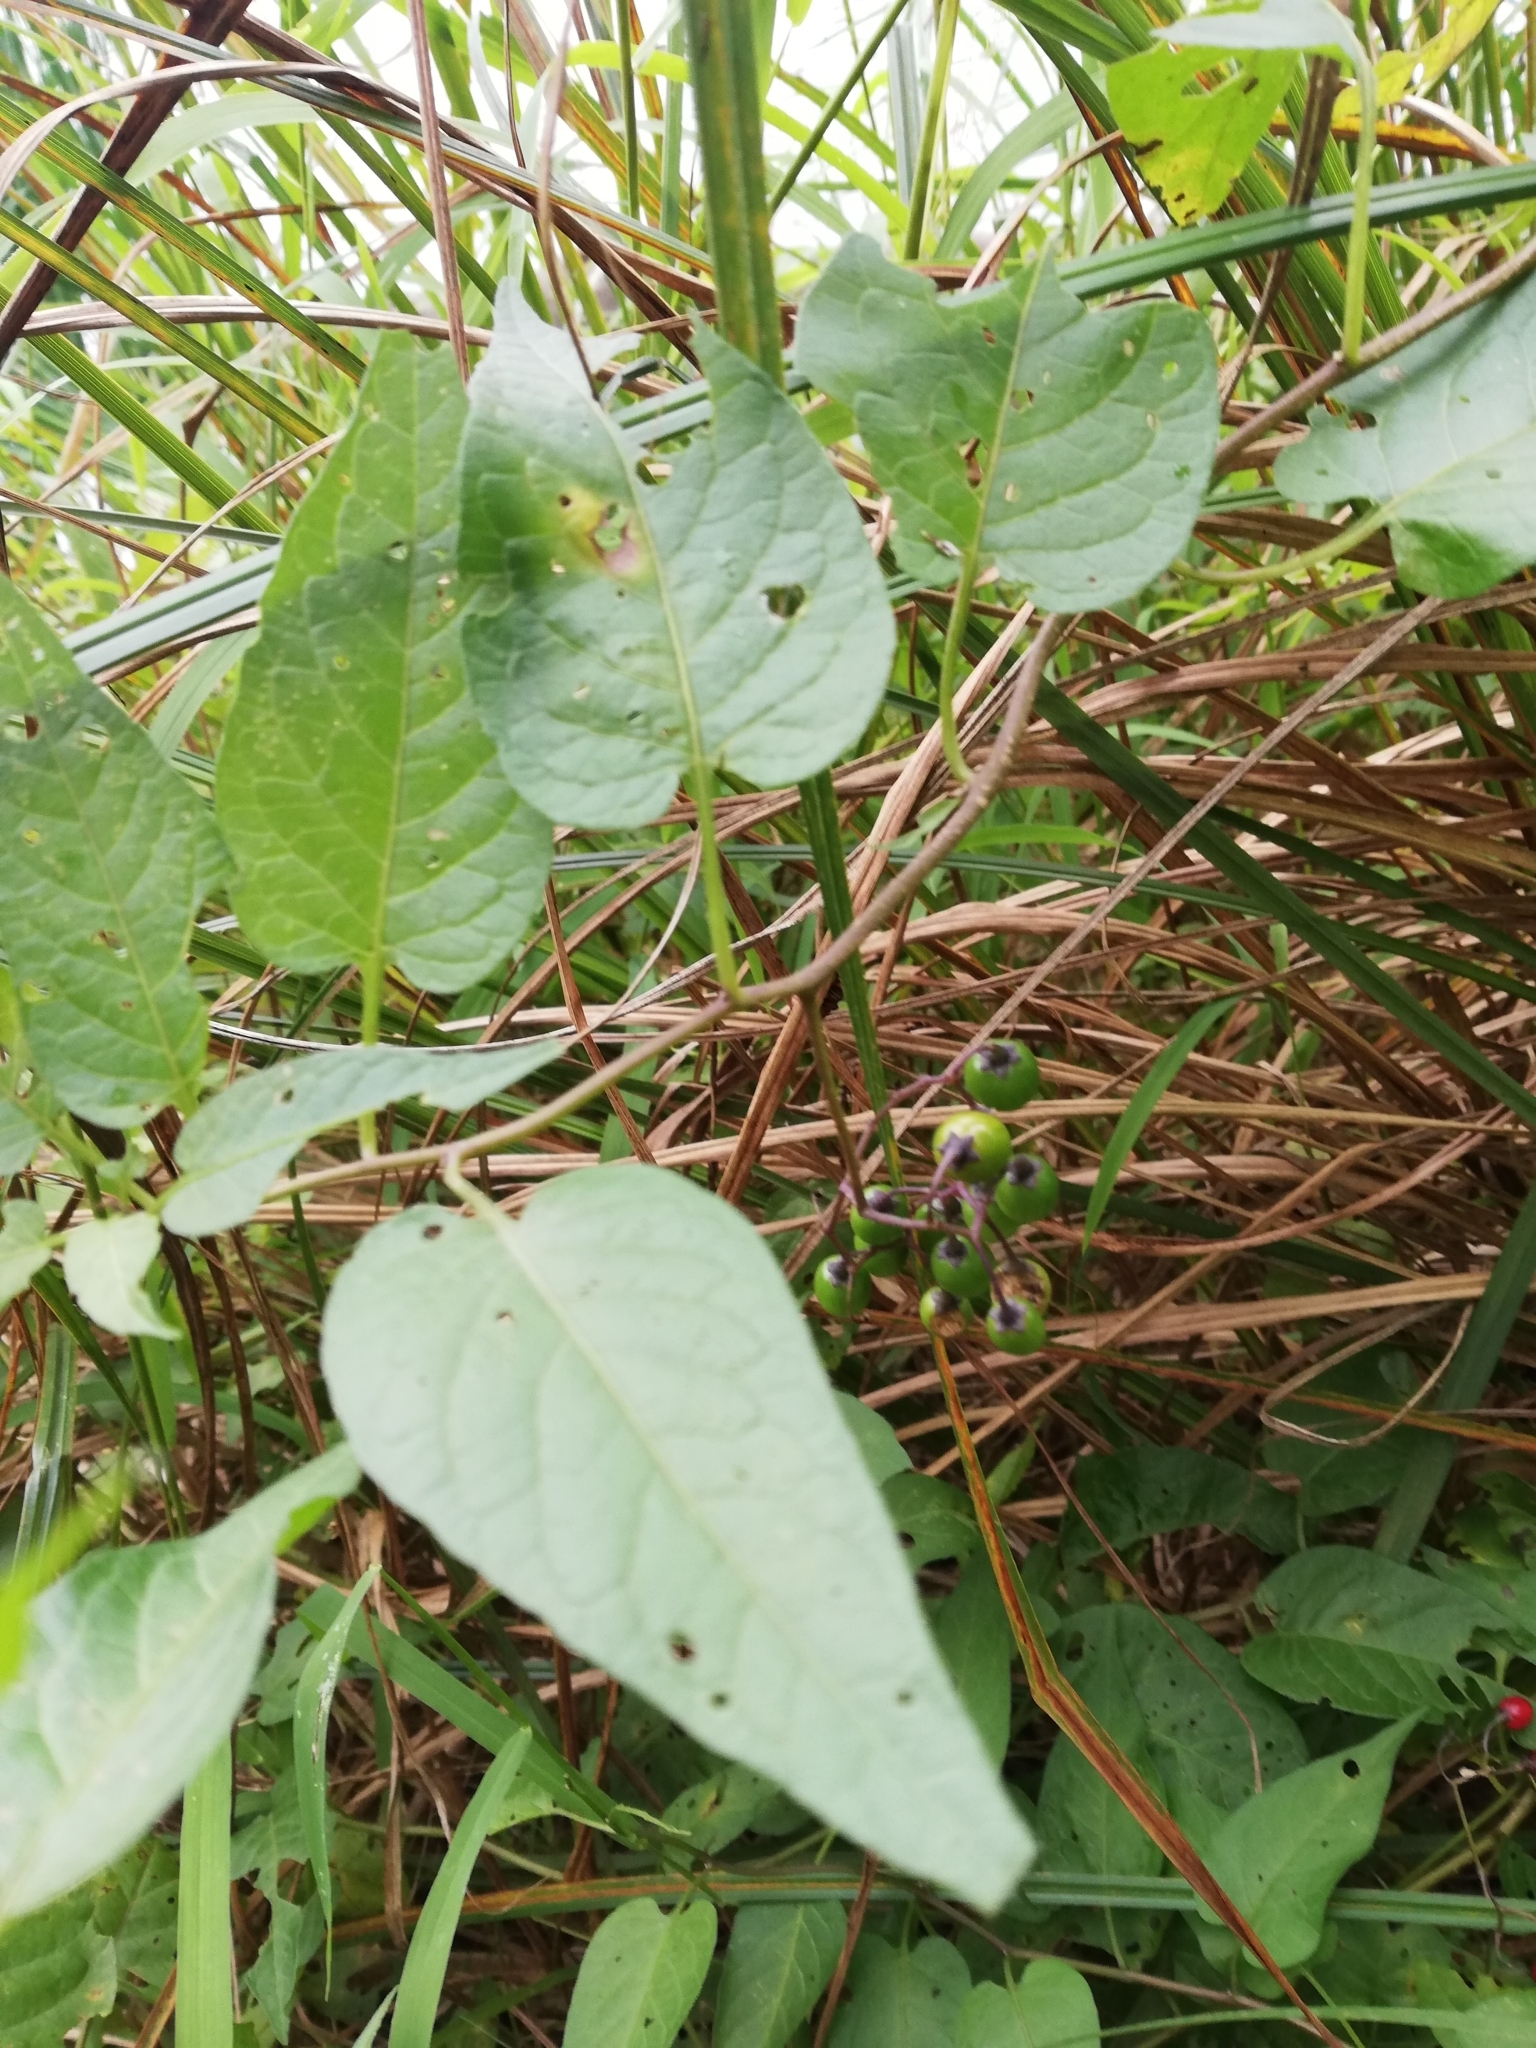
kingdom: Plantae
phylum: Tracheophyta
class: Magnoliopsida
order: Solanales
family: Solanaceae
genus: Solanum
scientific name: Solanum dulcamara
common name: Climbing nightshade
